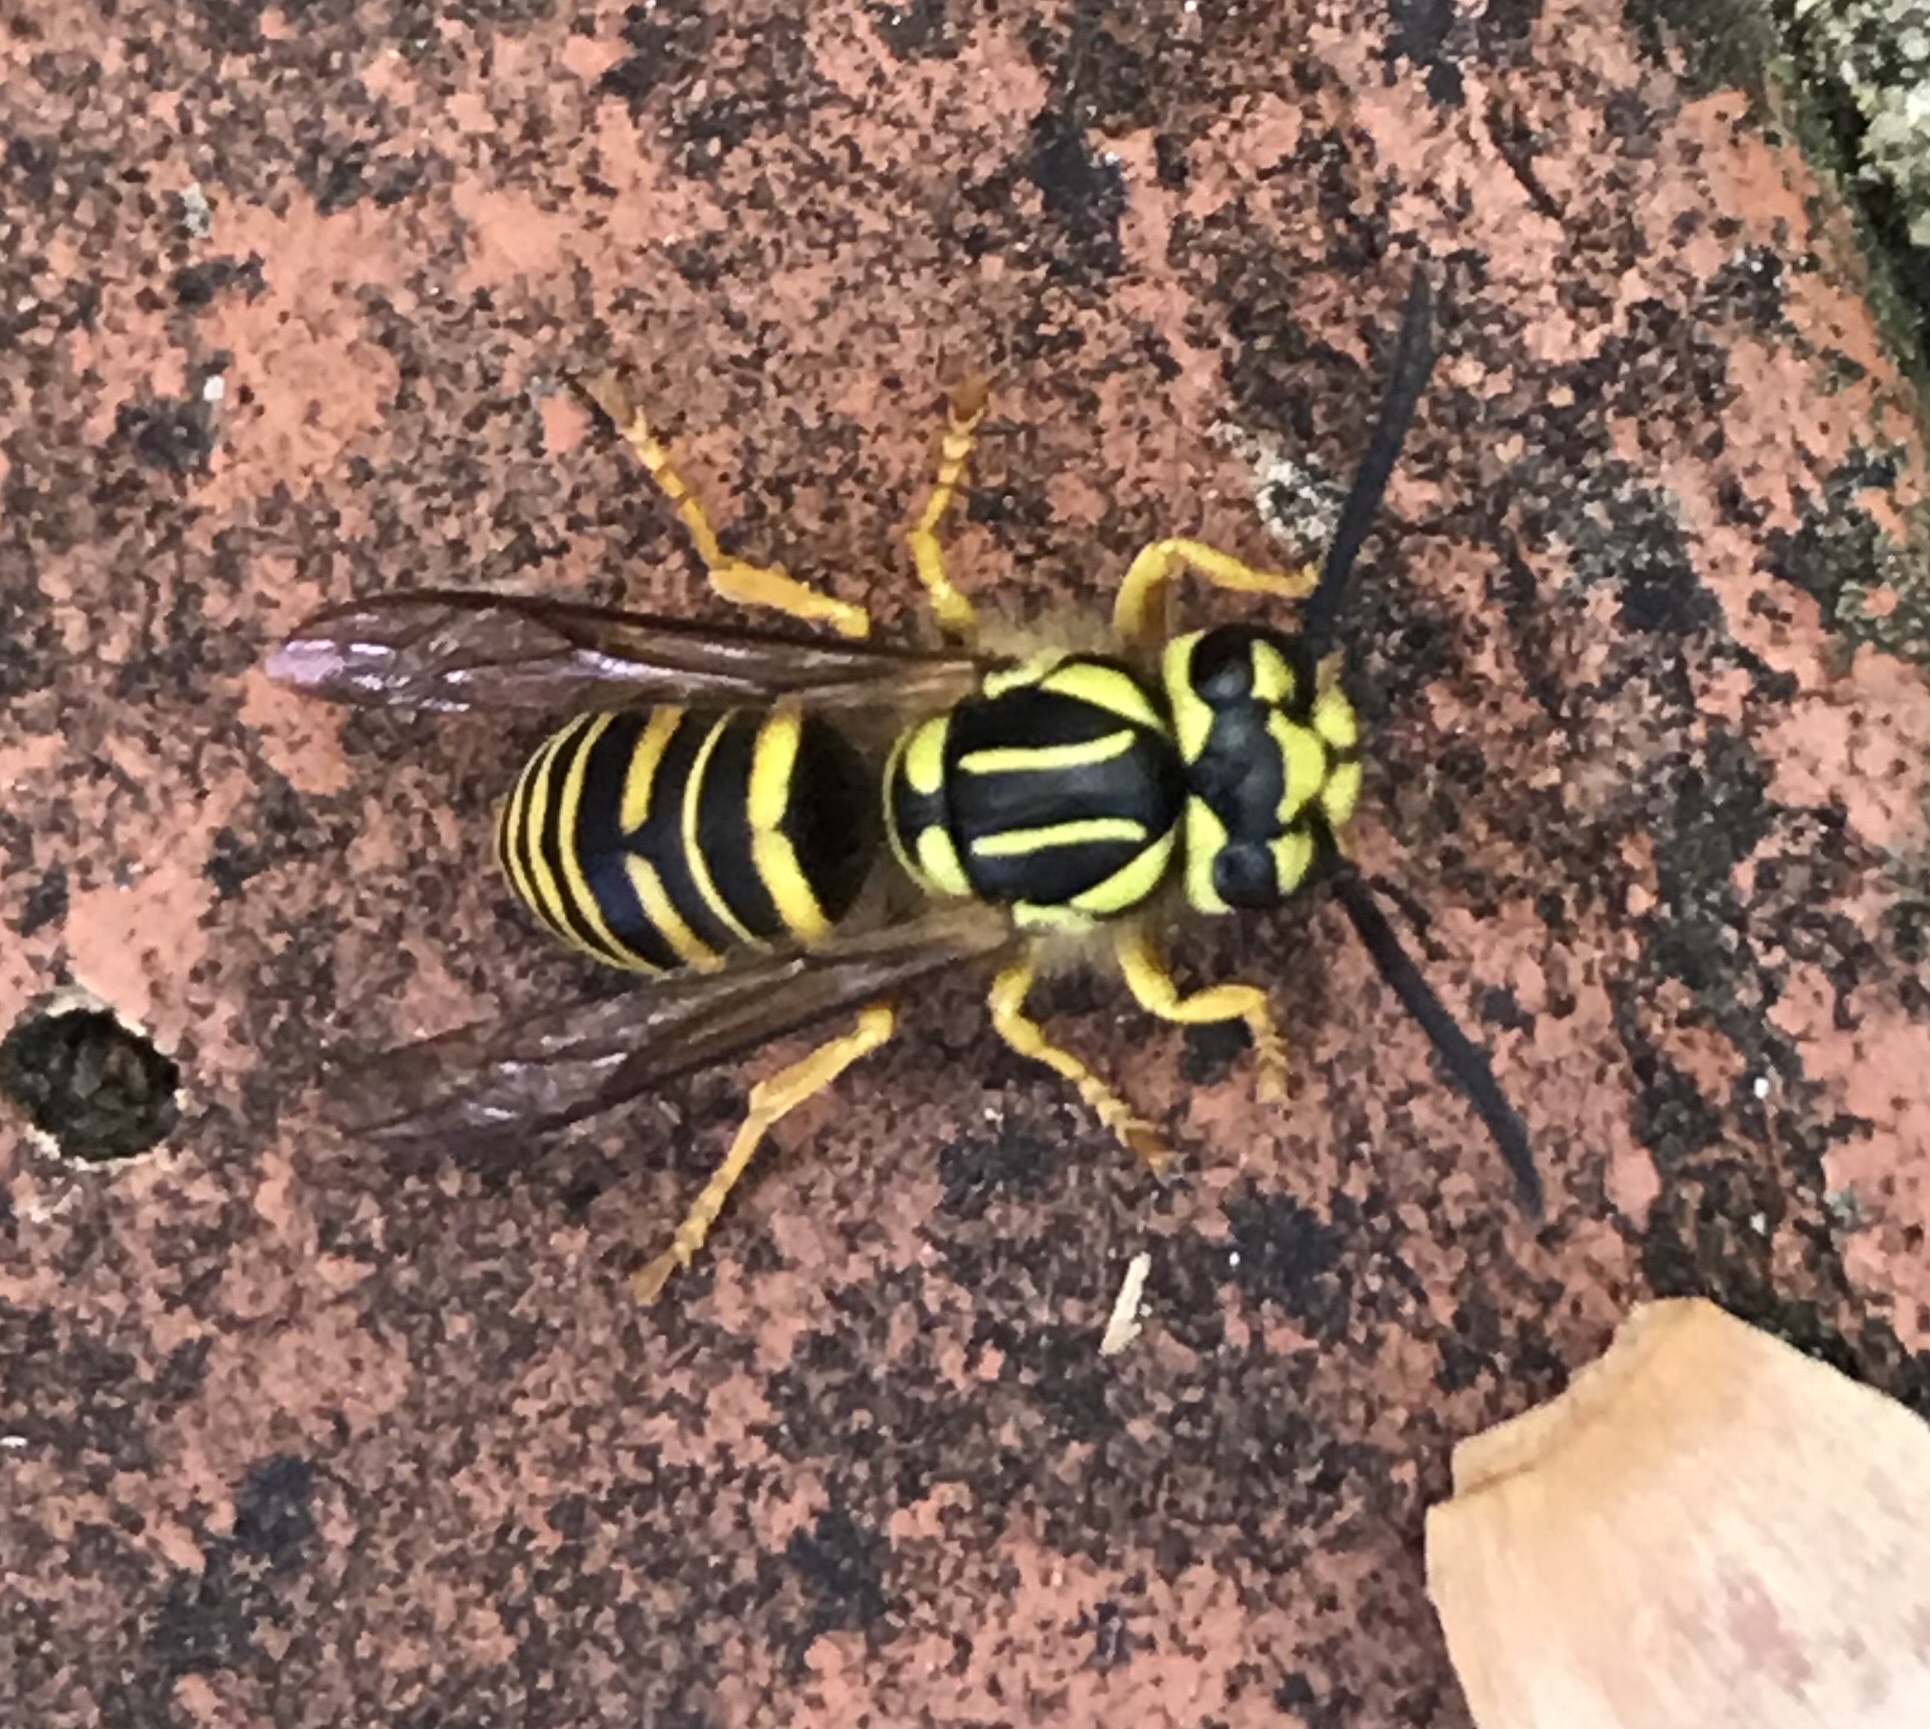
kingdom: Animalia
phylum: Arthropoda
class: Insecta
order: Hymenoptera
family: Vespidae
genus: Vespula
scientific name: Vespula squamosa
